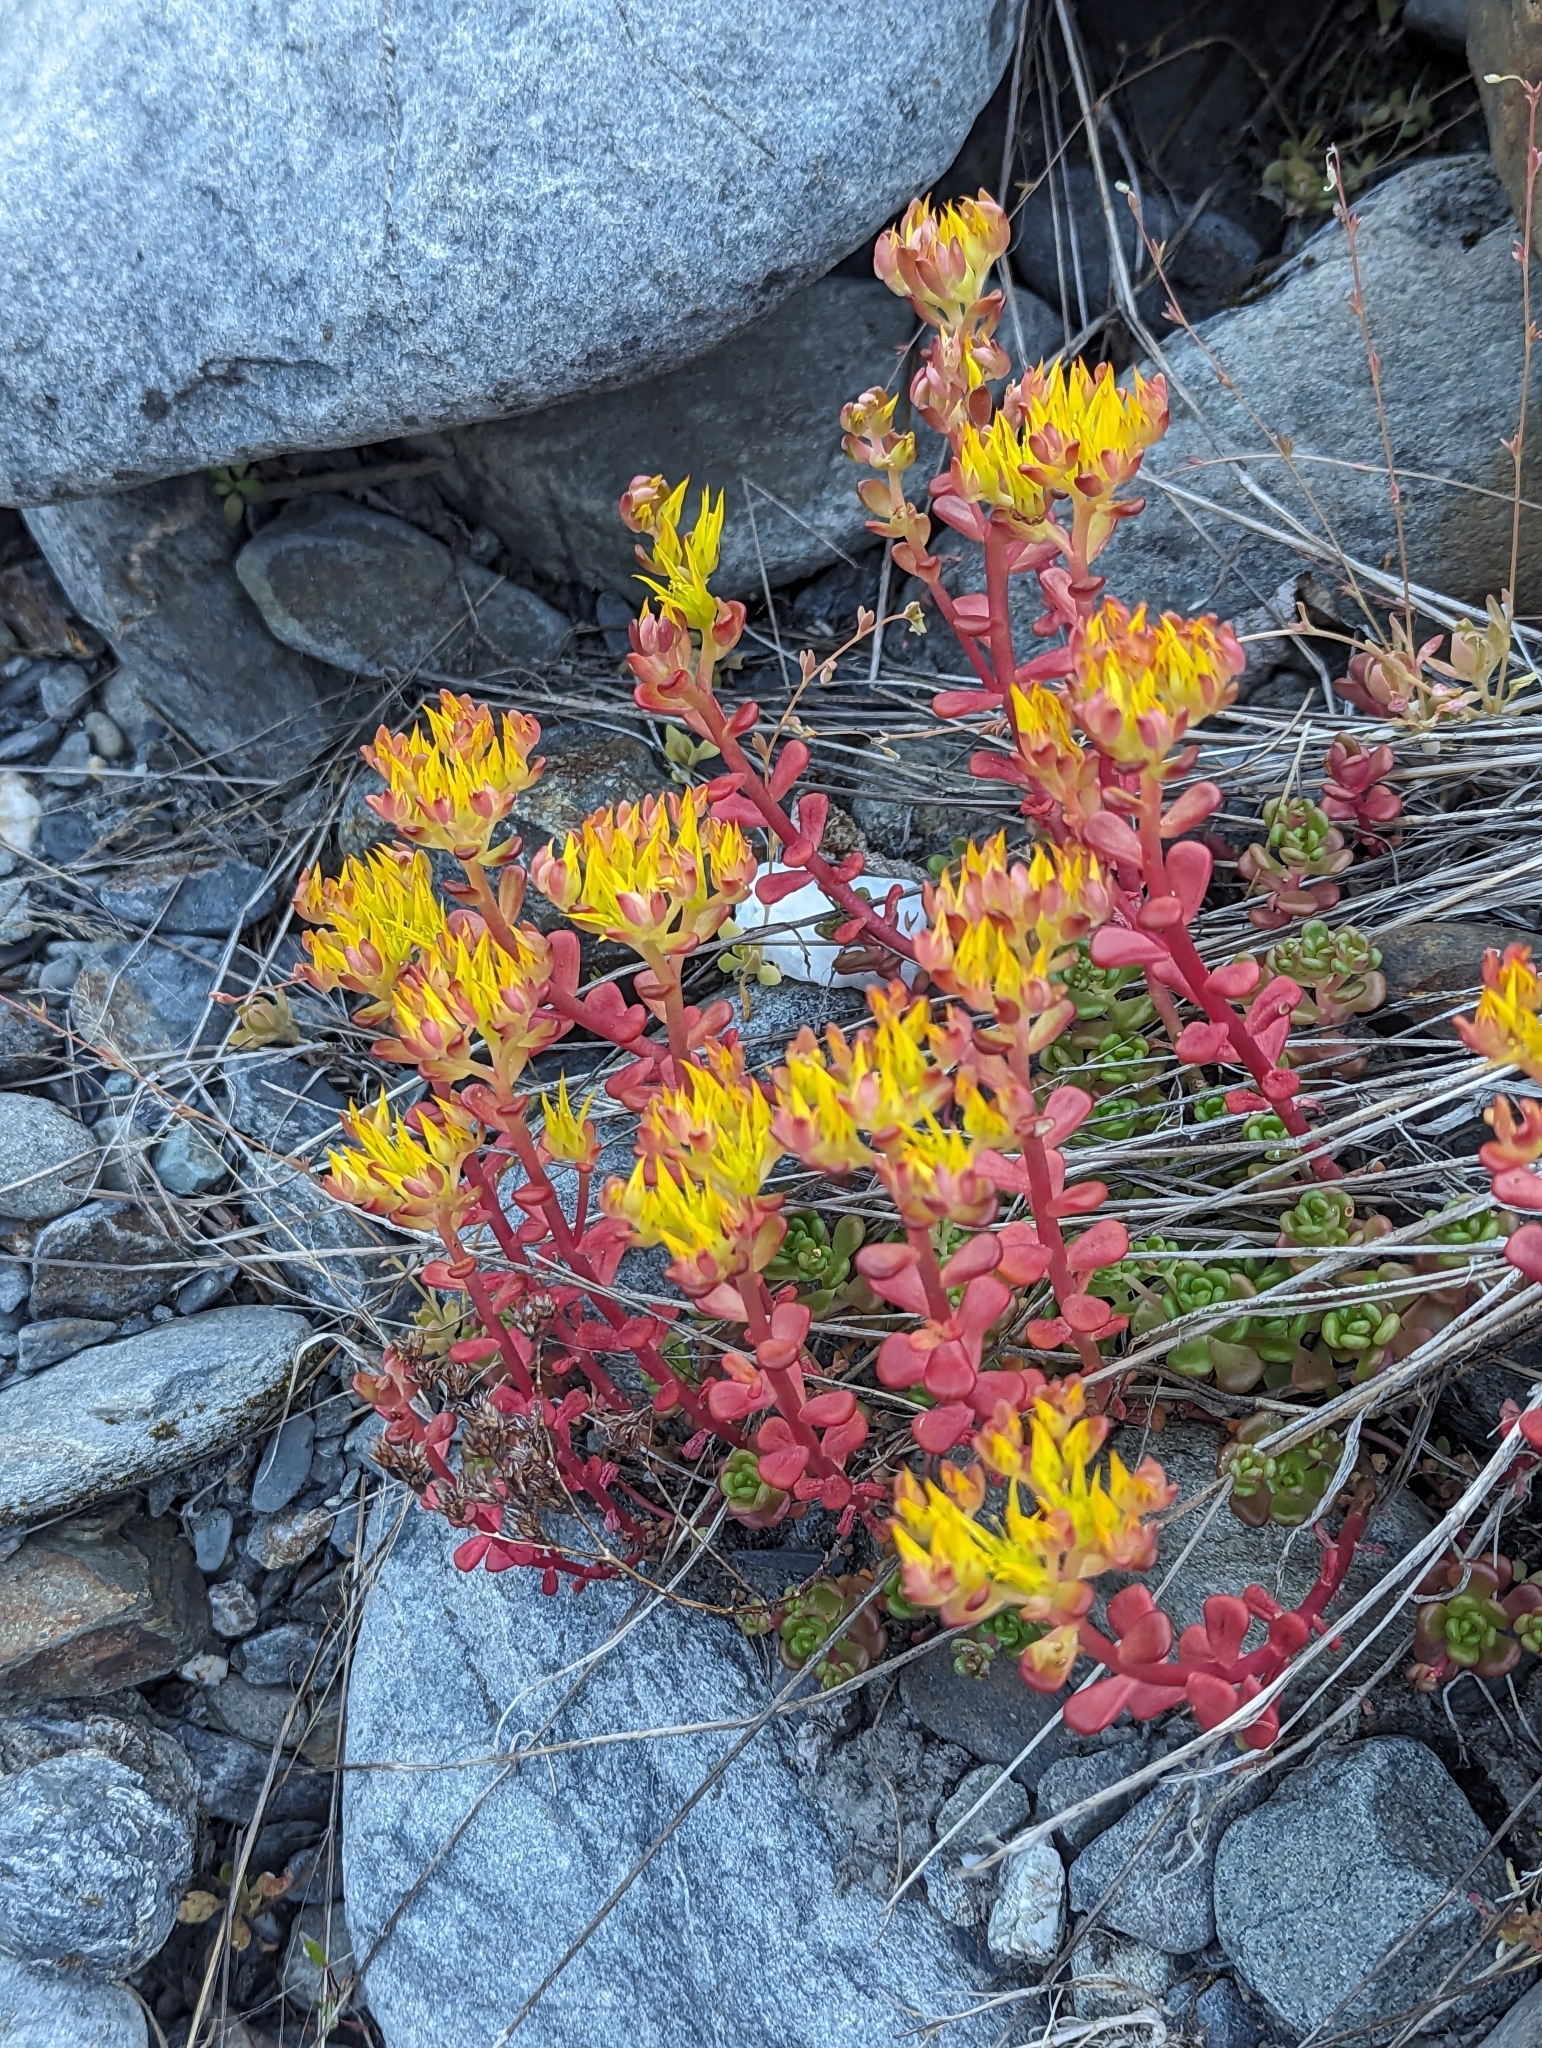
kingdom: Plantae
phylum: Tracheophyta
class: Magnoliopsida
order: Saxifragales
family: Crassulaceae
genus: Sedum
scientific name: Sedum oreganum
